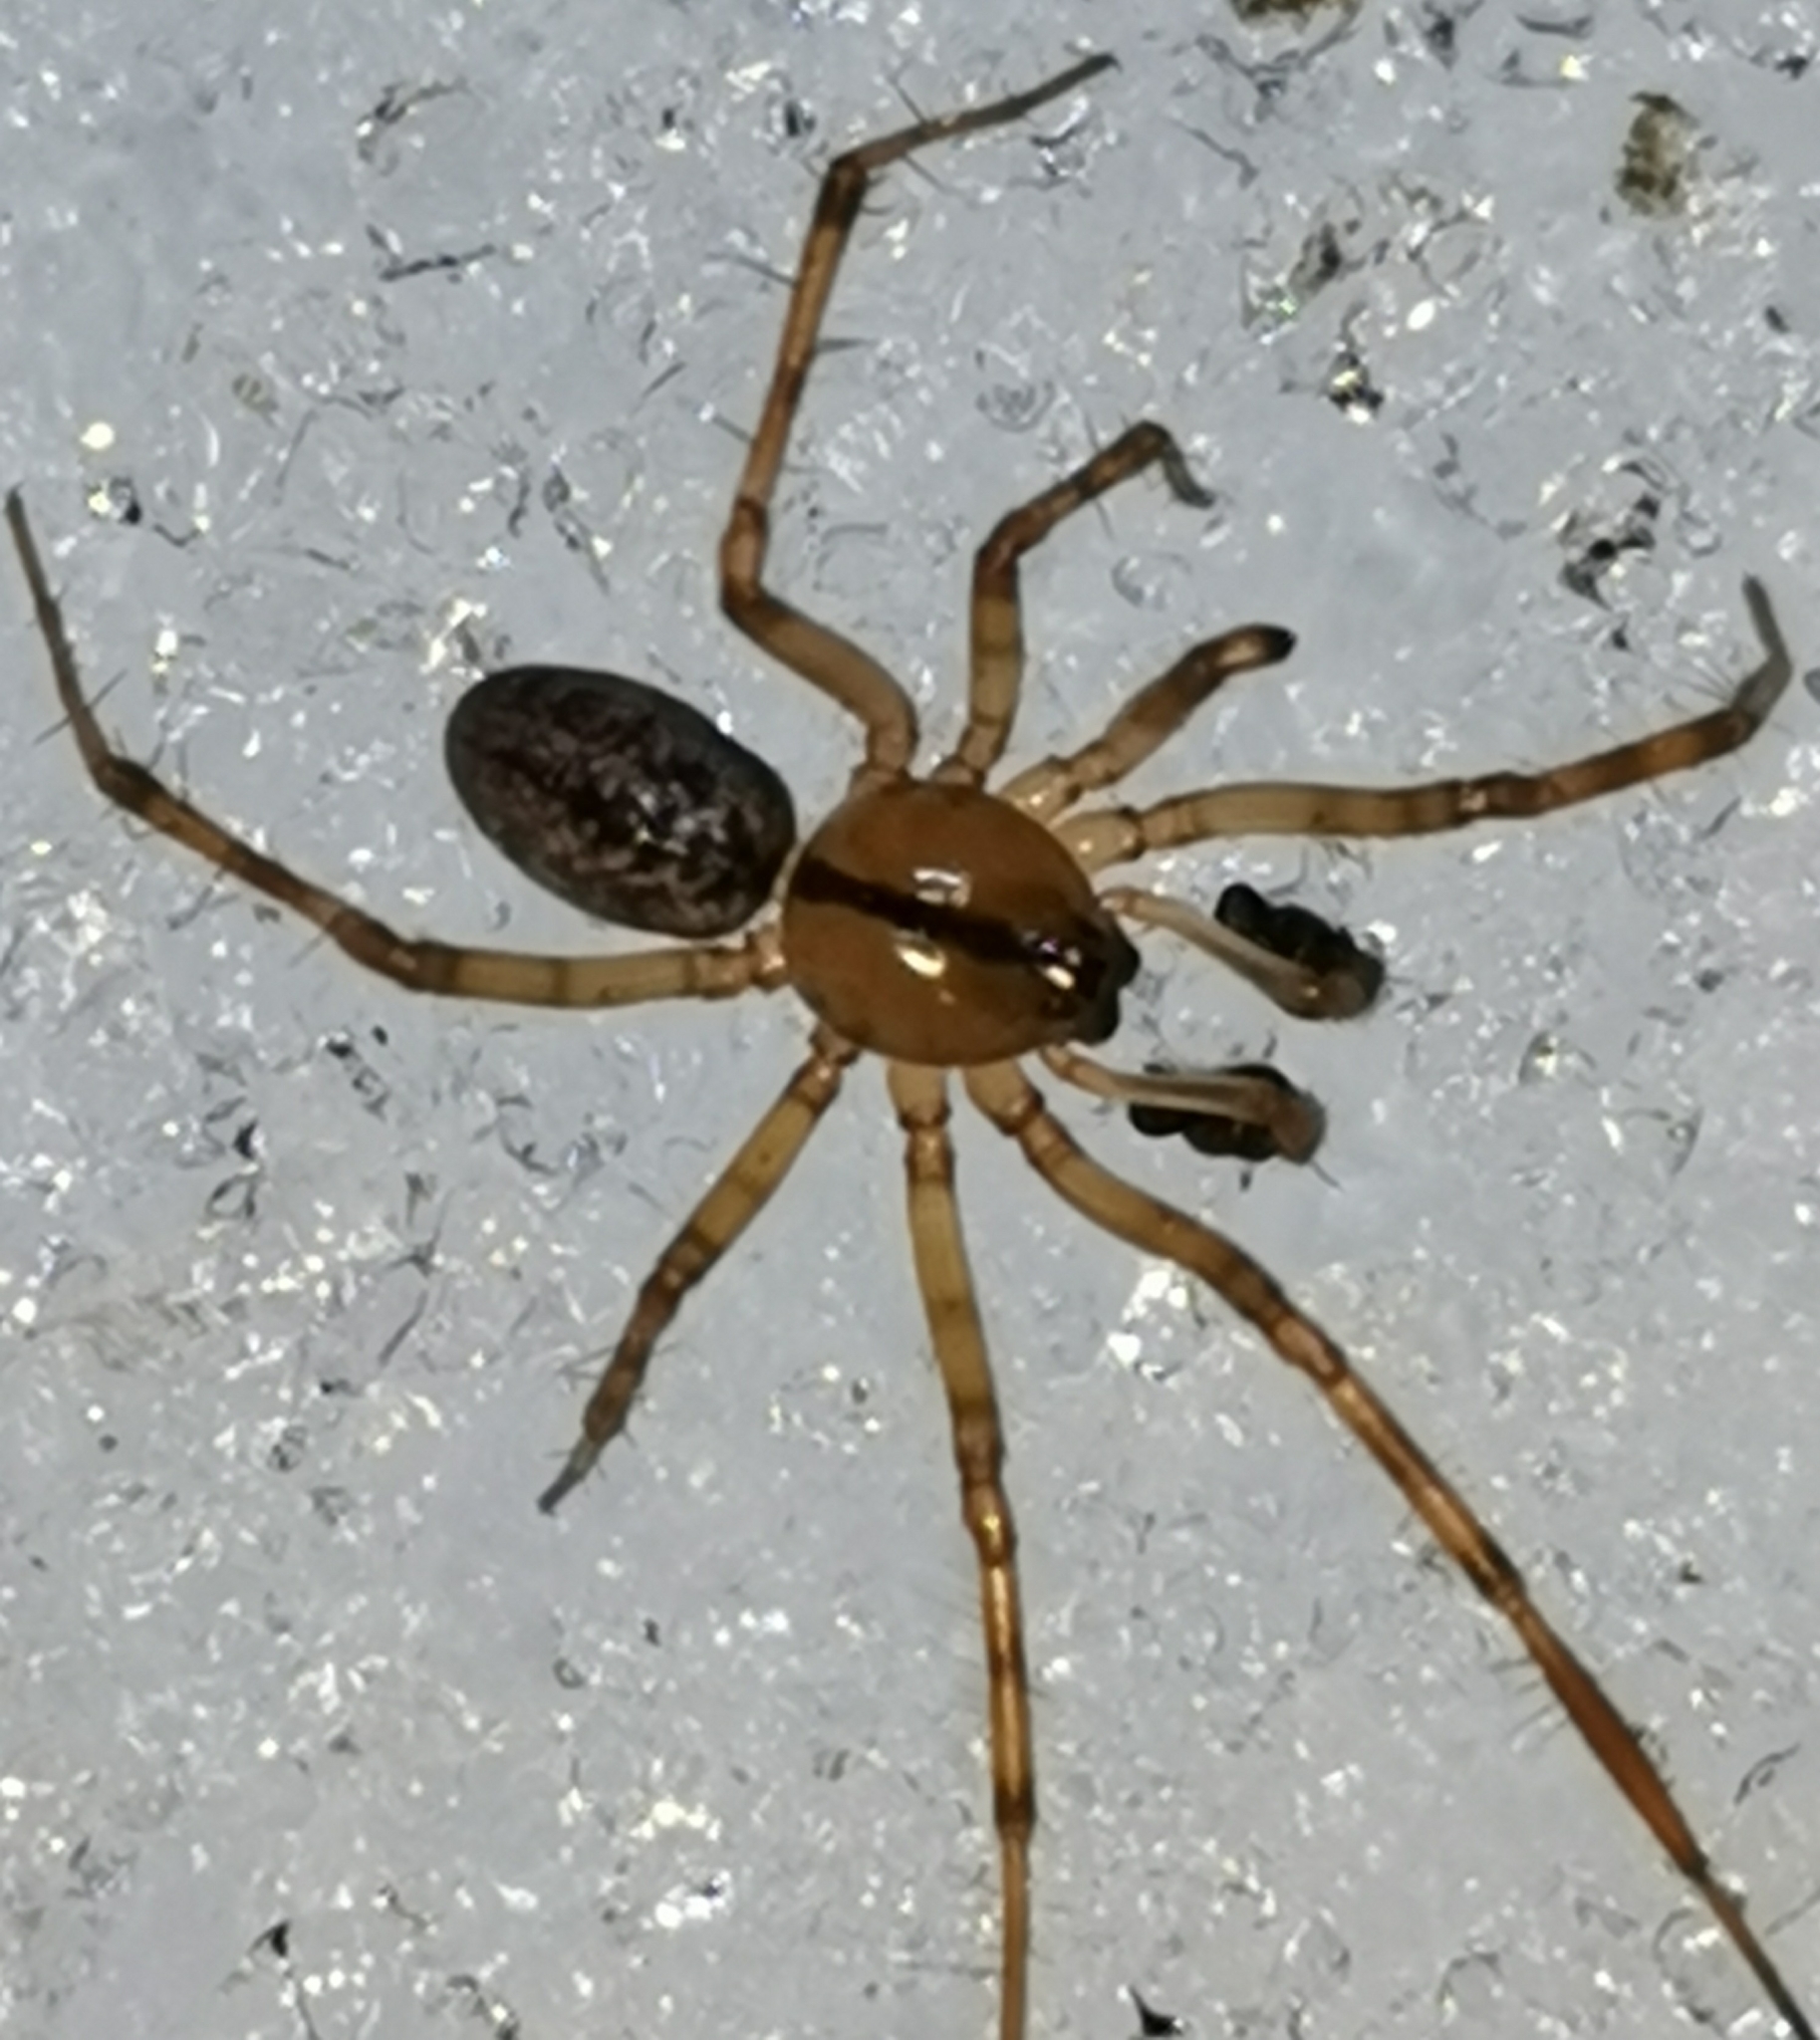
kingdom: Animalia
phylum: Arthropoda
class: Arachnida
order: Araneae
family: Linyphiidae
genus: Stemonyphantes
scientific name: Stemonyphantes lineatus
